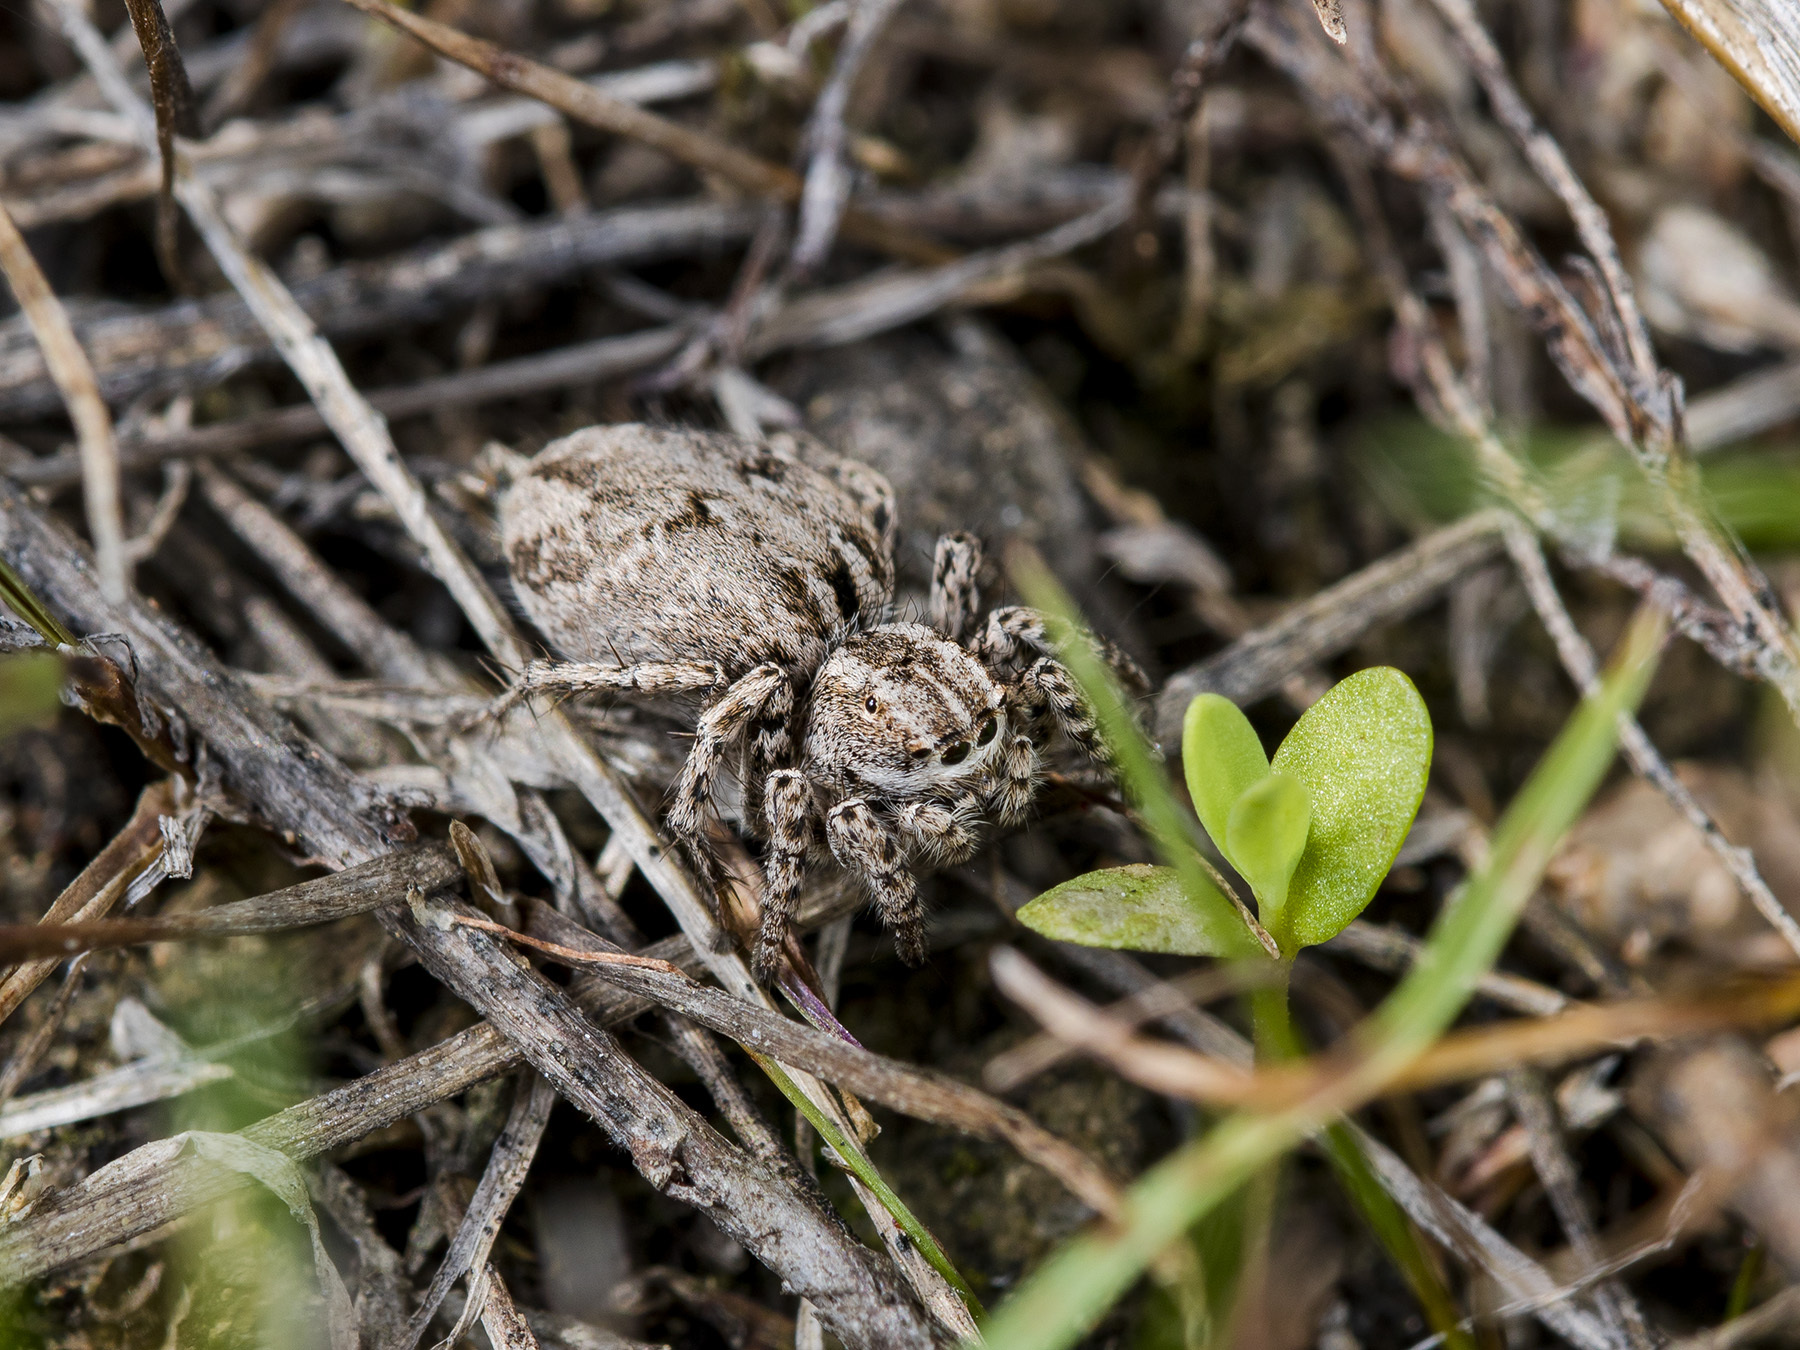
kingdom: Animalia
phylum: Arthropoda
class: Arachnida
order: Araneae
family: Salticidae
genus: Aelurillus
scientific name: Aelurillus m-nigrum
